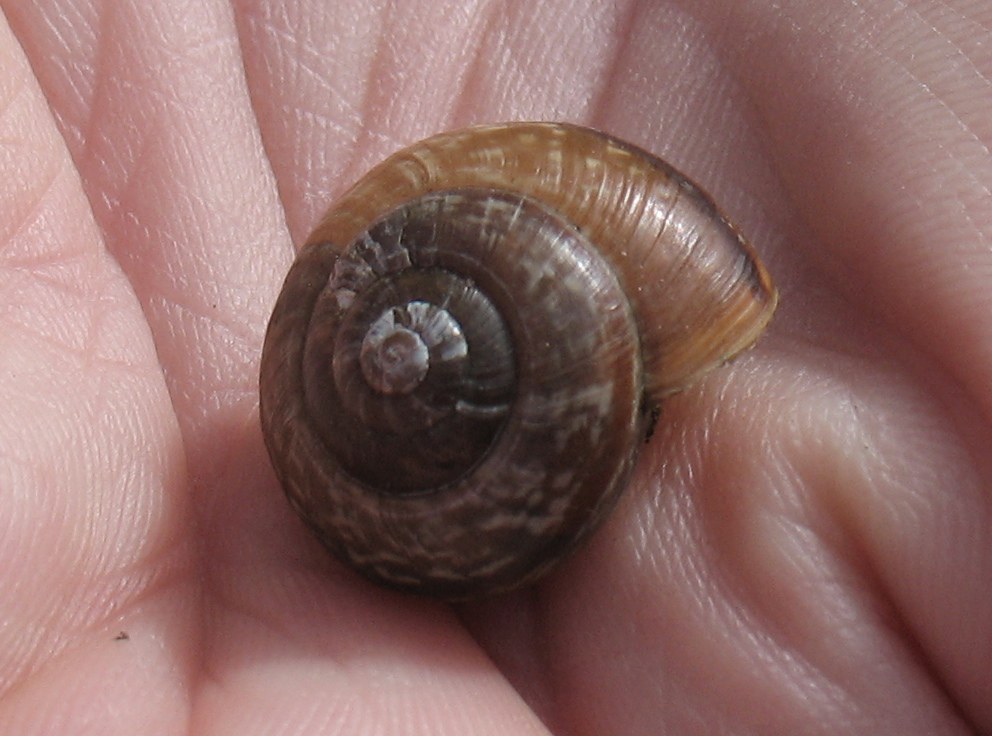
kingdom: Animalia
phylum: Mollusca
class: Gastropoda
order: Stylommatophora
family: Helicidae
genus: Arianta
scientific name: Arianta arbustorum
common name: Copse snail
